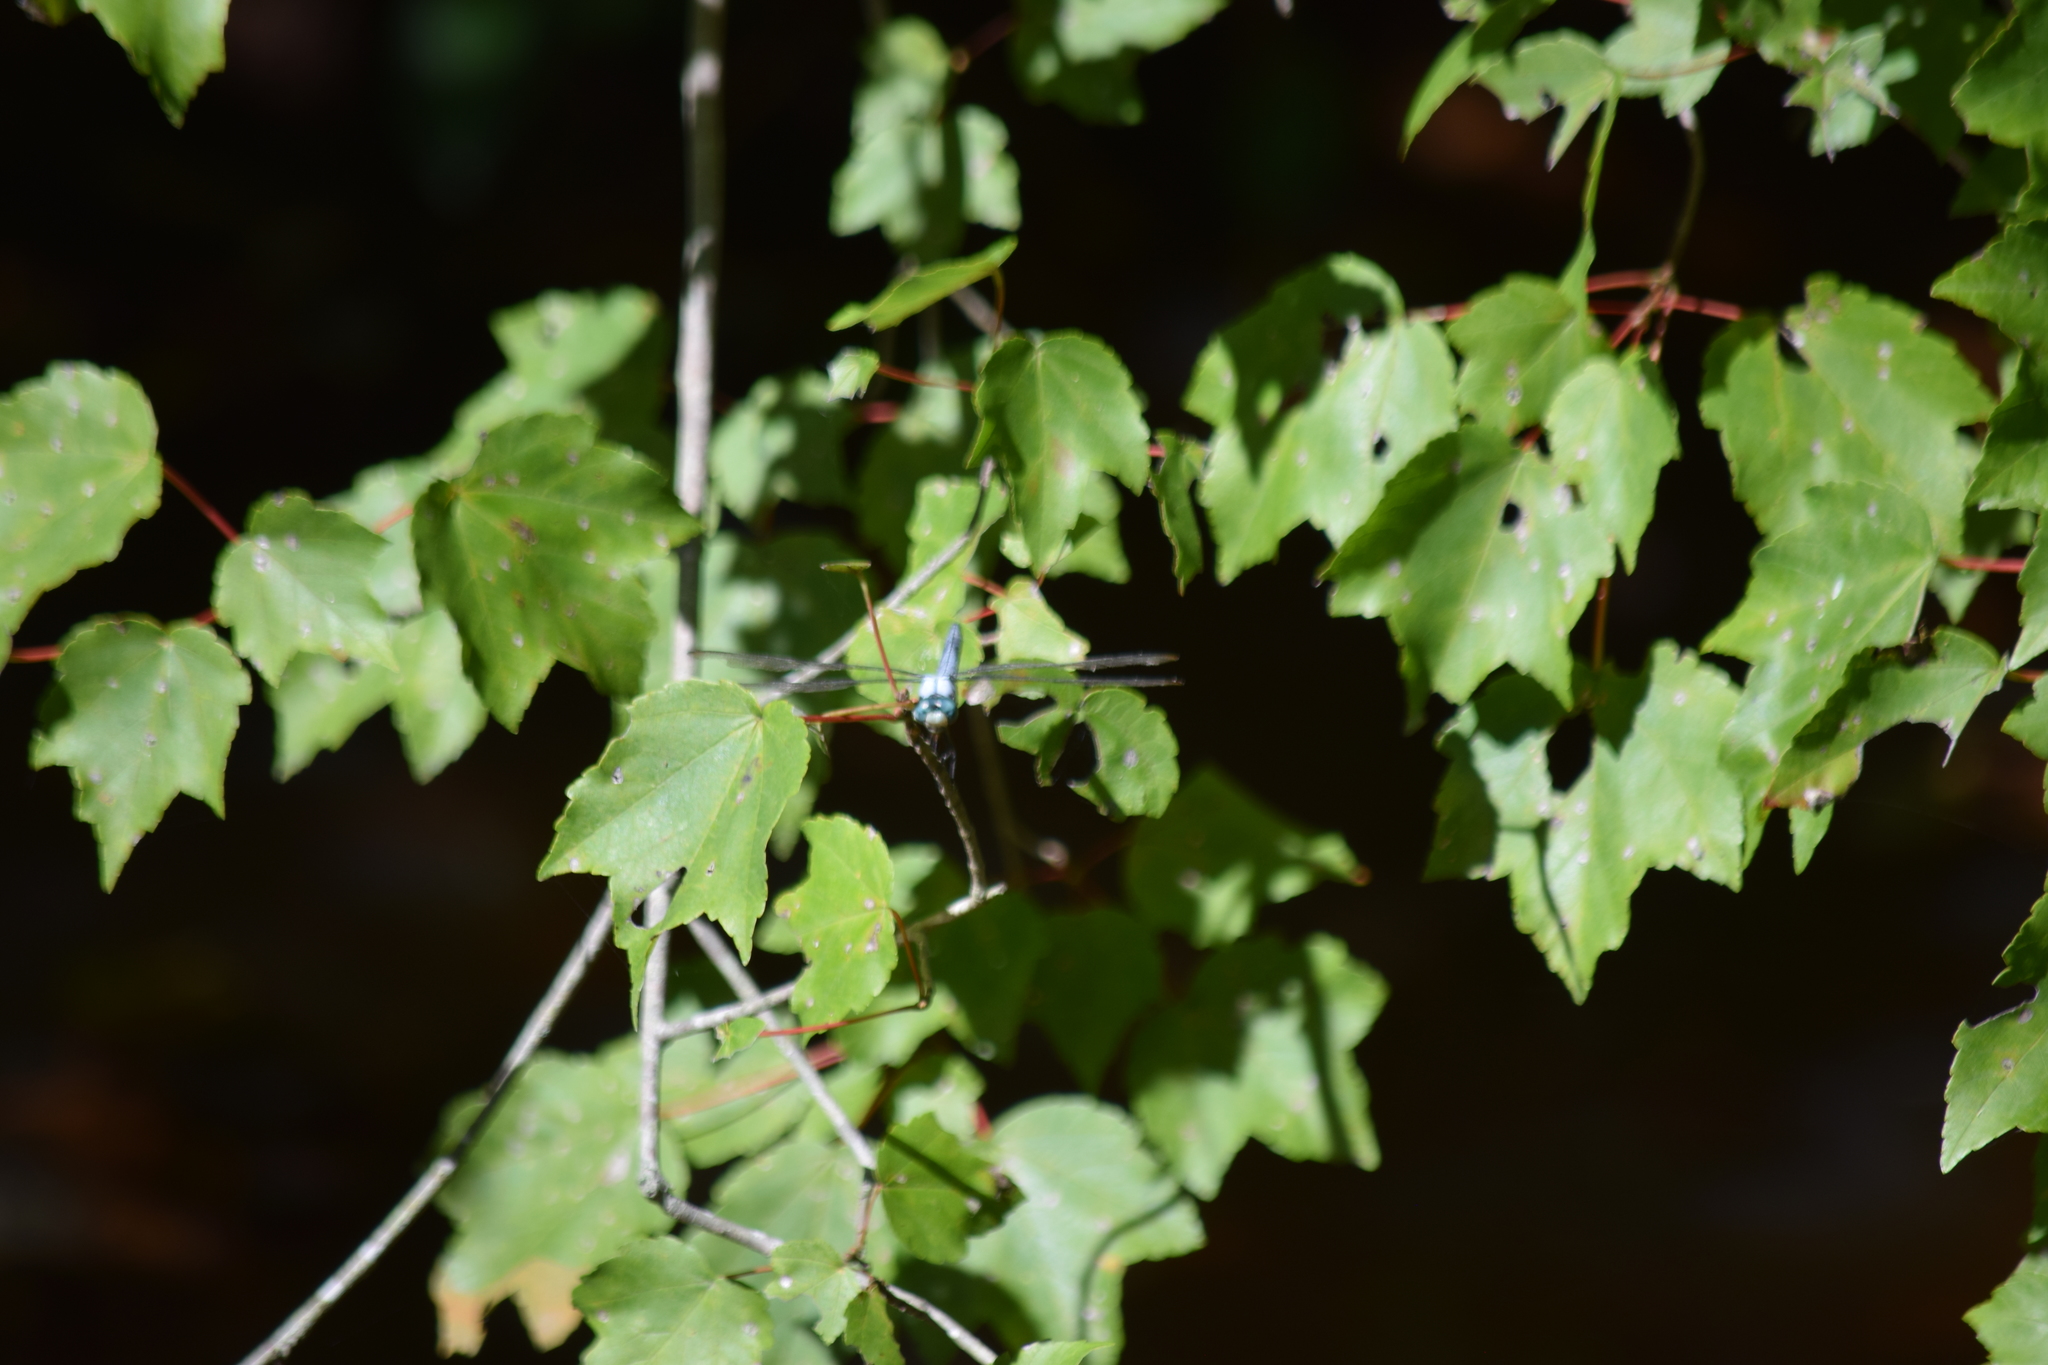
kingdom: Animalia
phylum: Arthropoda
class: Insecta
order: Odonata
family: Libellulidae
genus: Libellula
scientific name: Libellula vibrans
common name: Great blue skimmer
